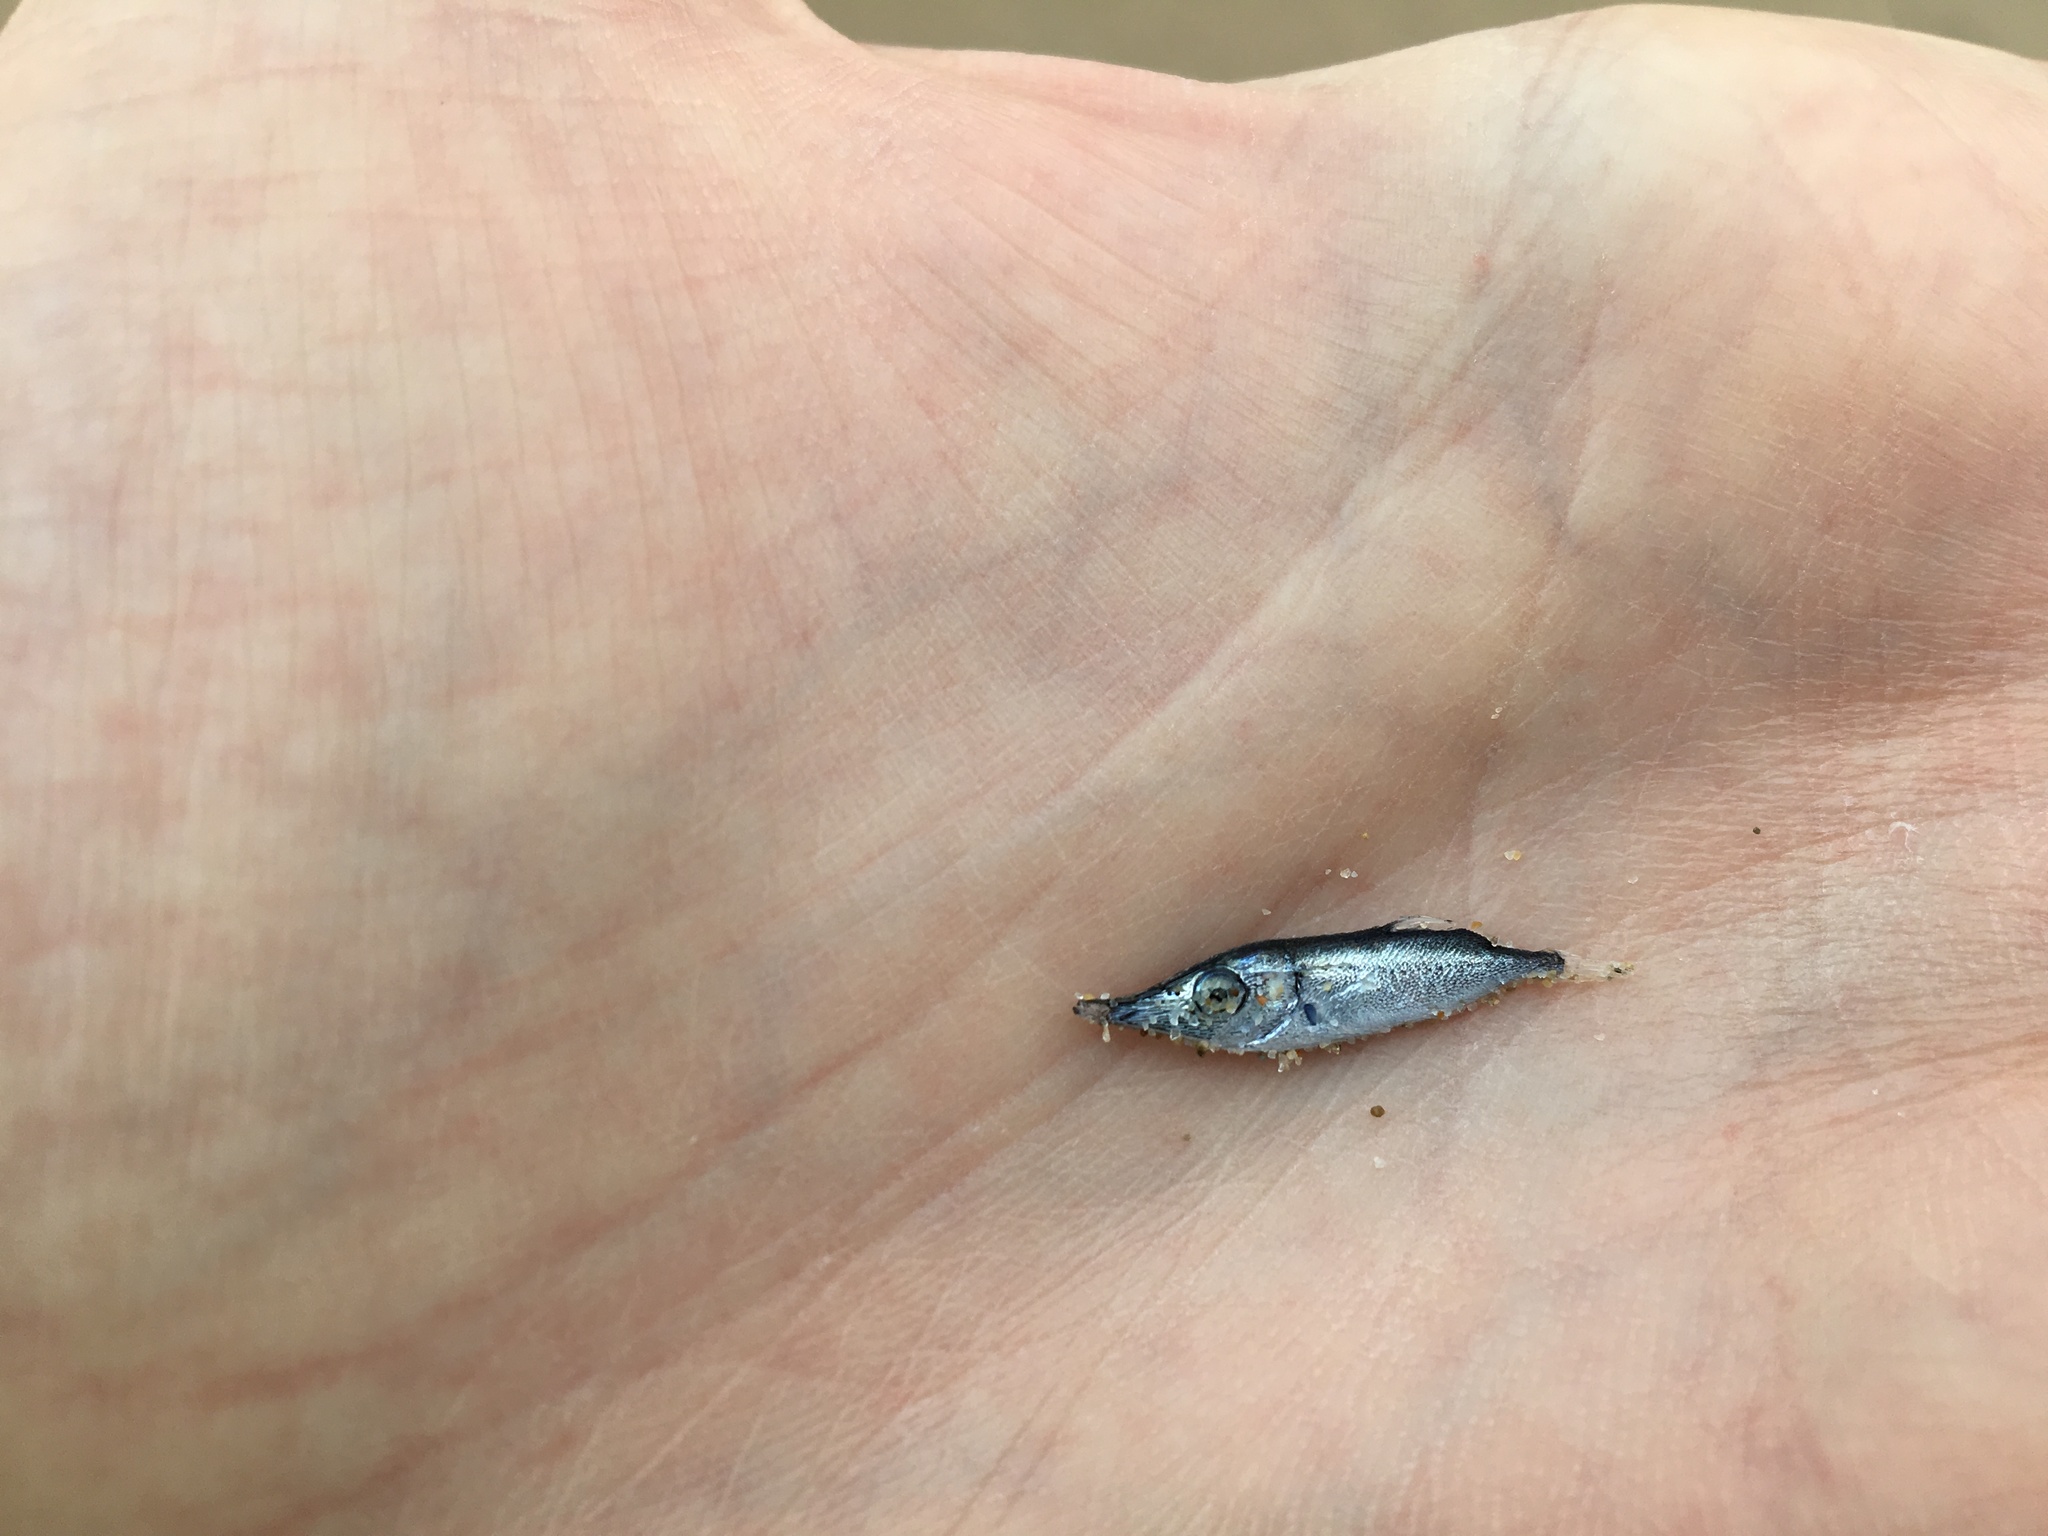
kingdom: Animalia
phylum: Chordata
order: Syngnathiformes
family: Centriscidae
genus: Macroramphosus
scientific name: Macroramphosus scolopax
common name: Snipe-fish
